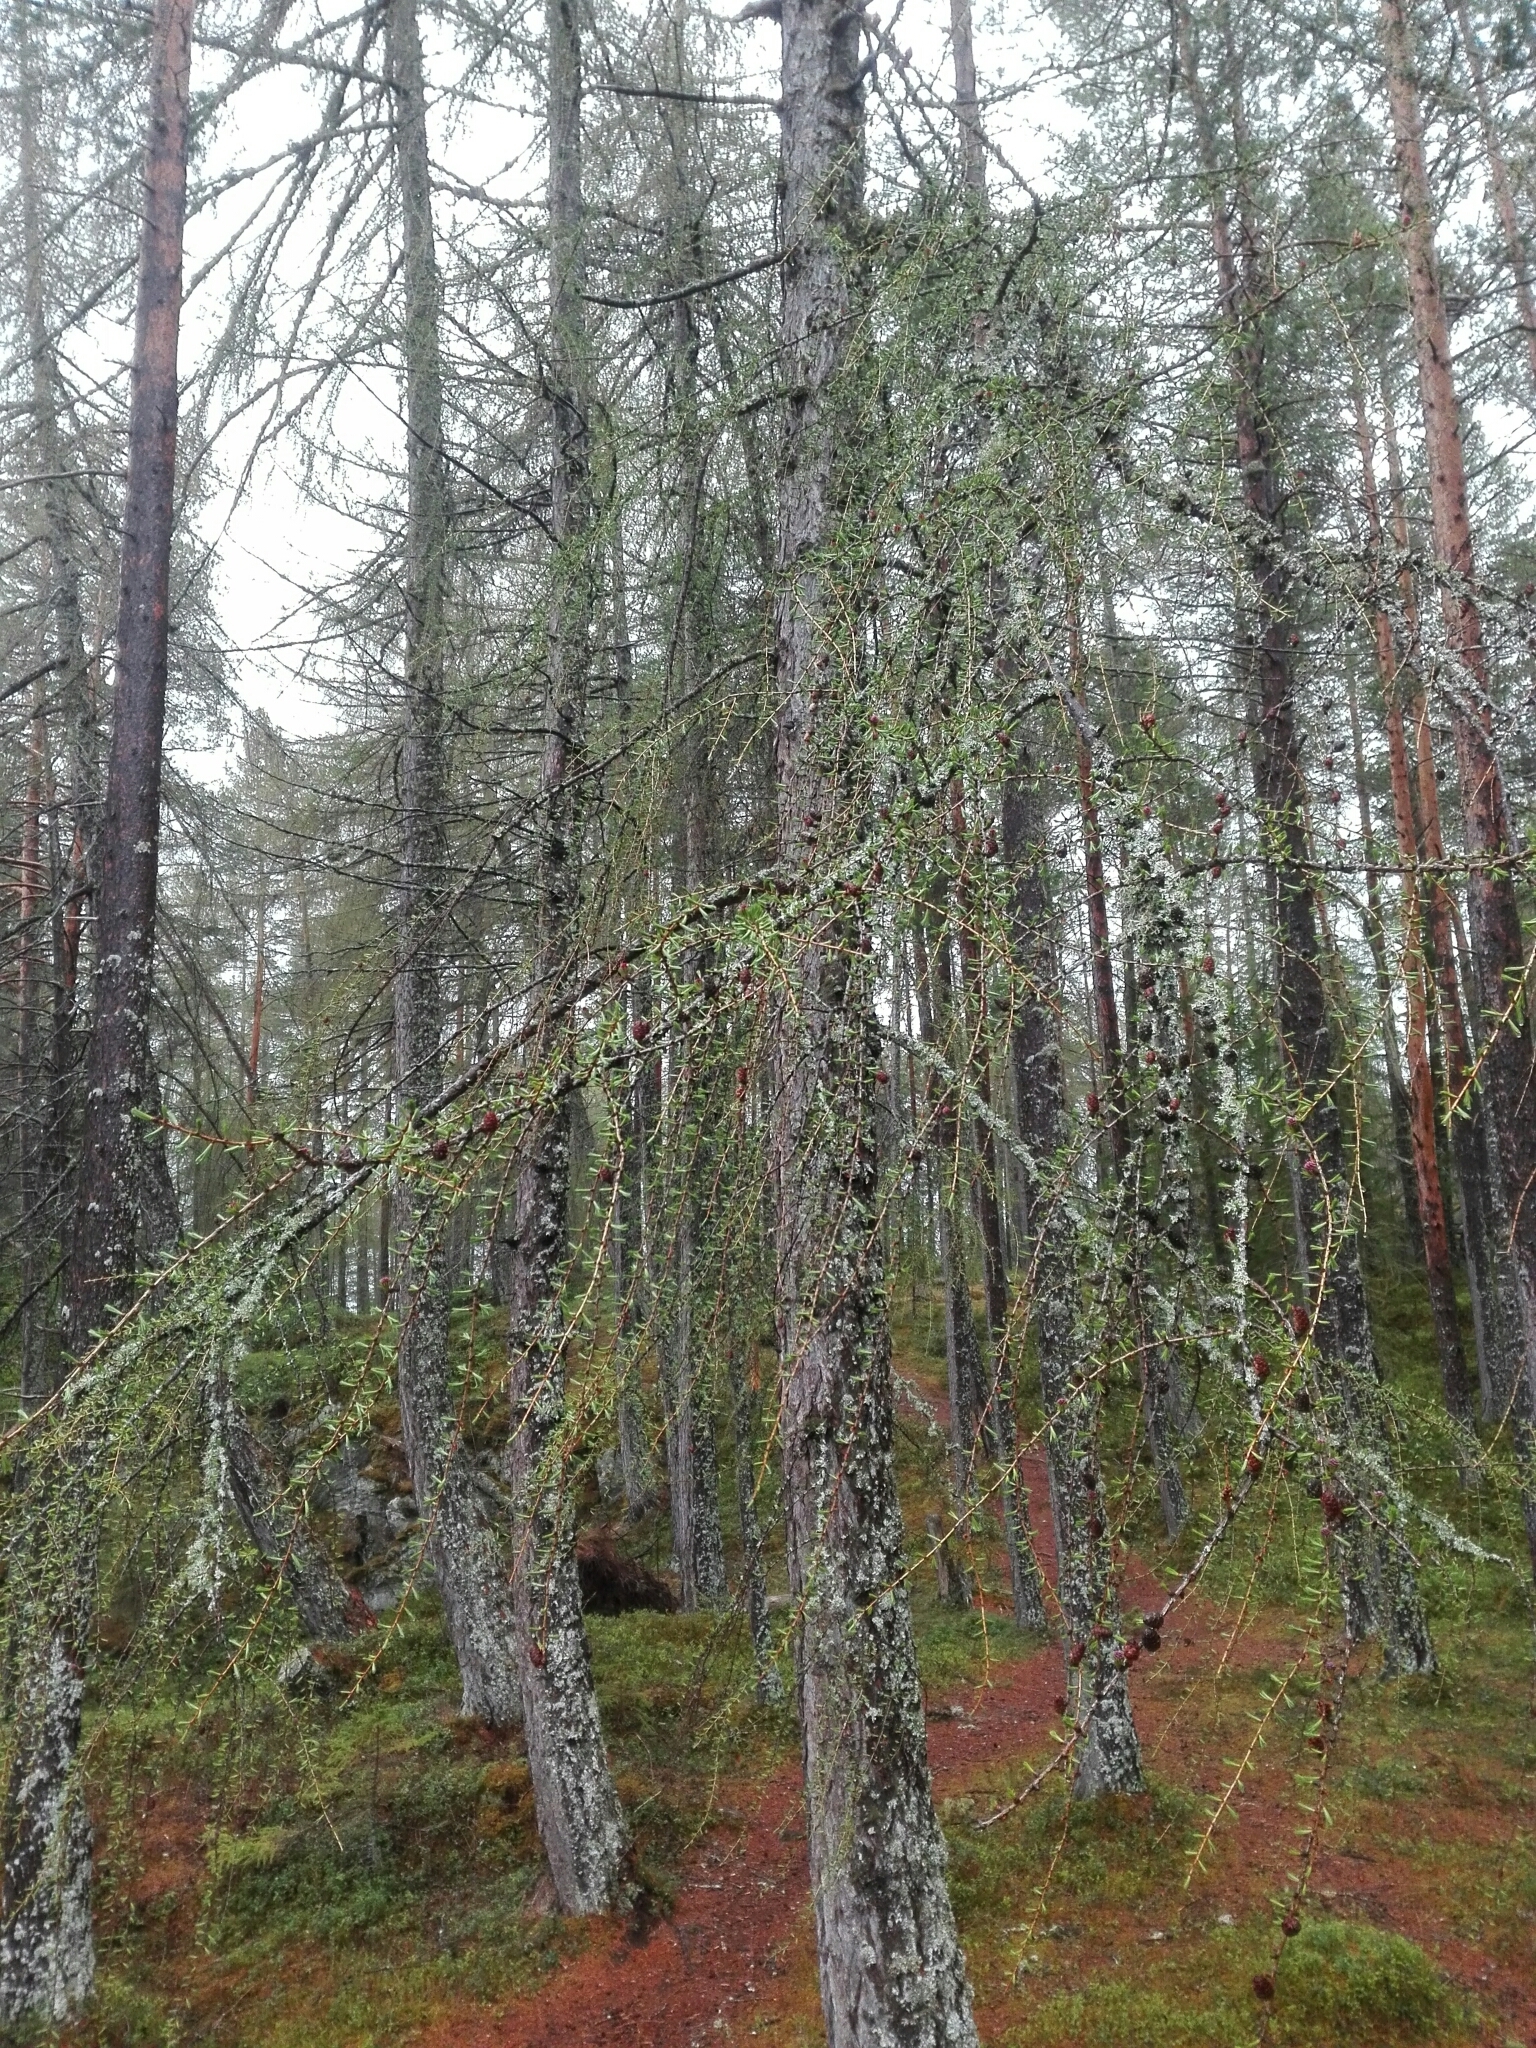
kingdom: Plantae
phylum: Tracheophyta
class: Pinopsida
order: Pinales
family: Pinaceae
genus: Larix
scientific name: Larix decidua
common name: European larch
